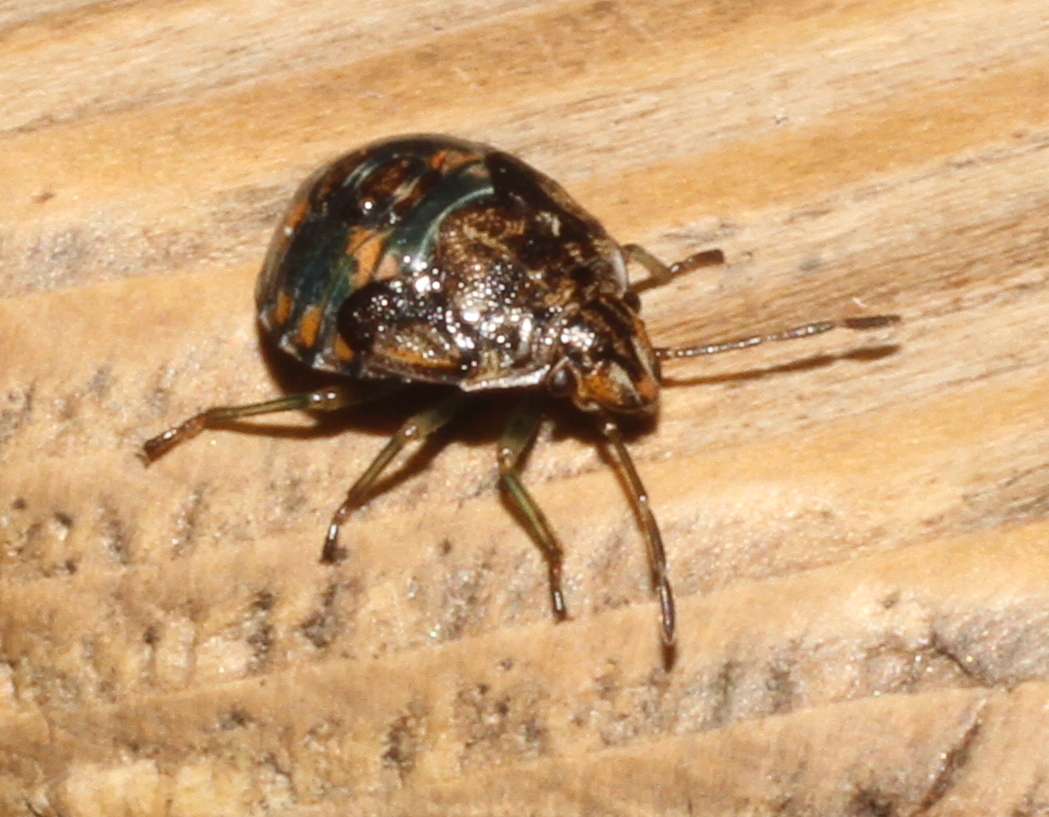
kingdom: Animalia
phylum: Arthropoda
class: Insecta
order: Hemiptera
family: Pentatomidae
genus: Holcogaster
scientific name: Holcogaster fibulata
